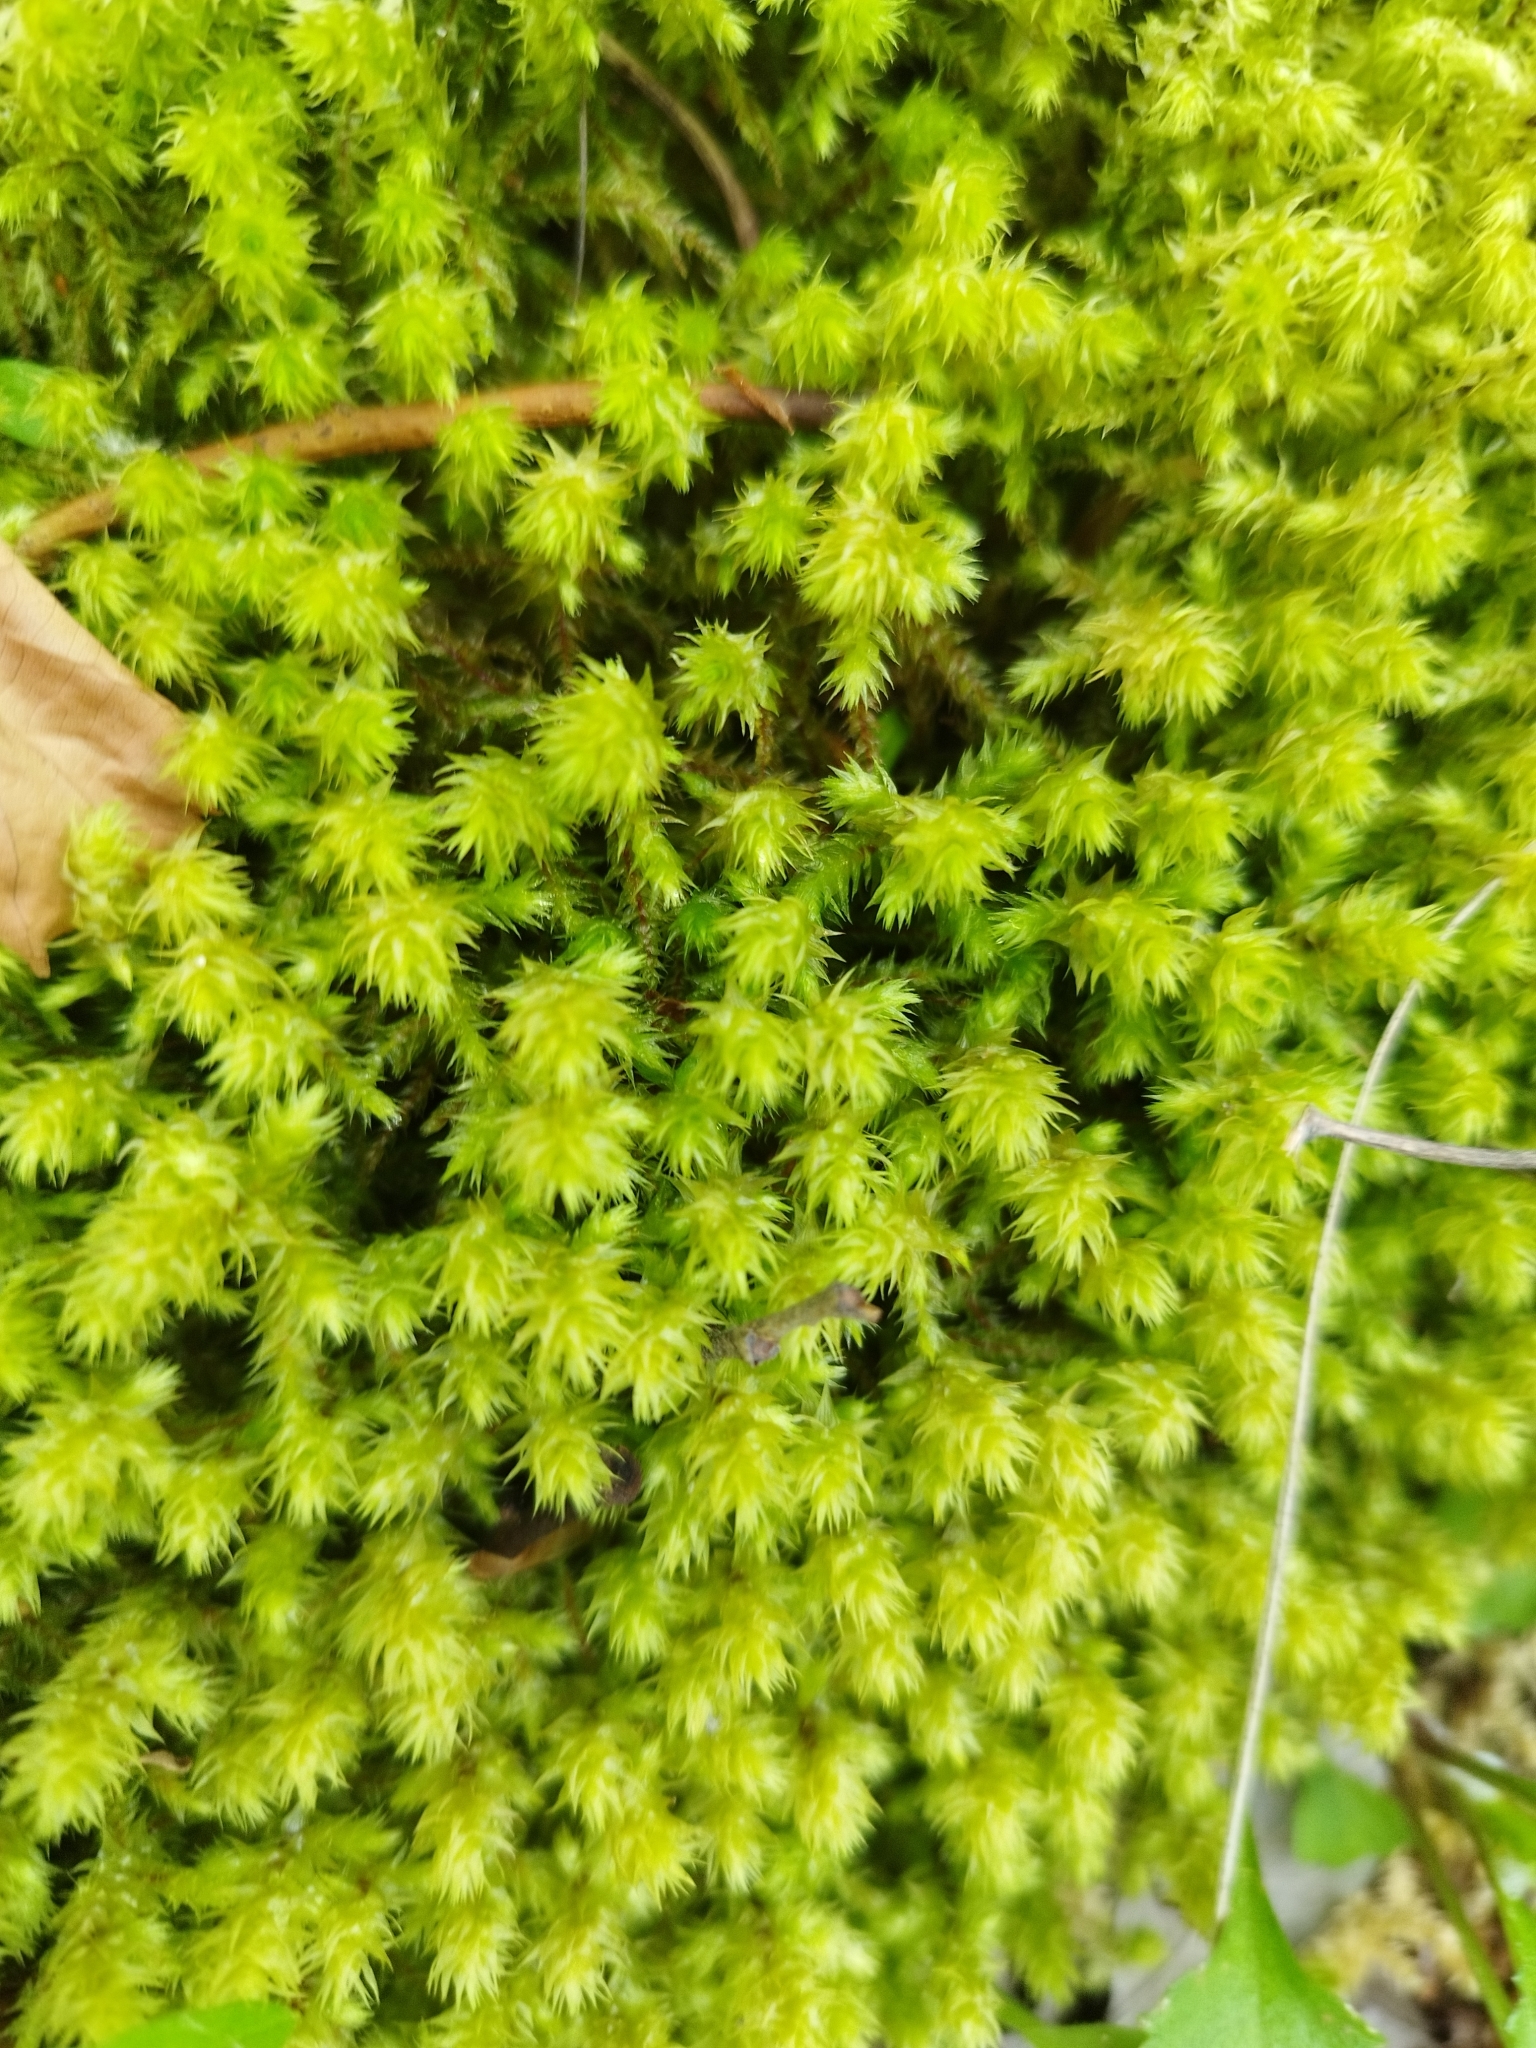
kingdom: Plantae
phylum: Bryophyta
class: Bryopsida
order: Hypnales
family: Hylocomiaceae
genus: Hylocomiadelphus
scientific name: Hylocomiadelphus triquetrus
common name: Rough goose neck moss
